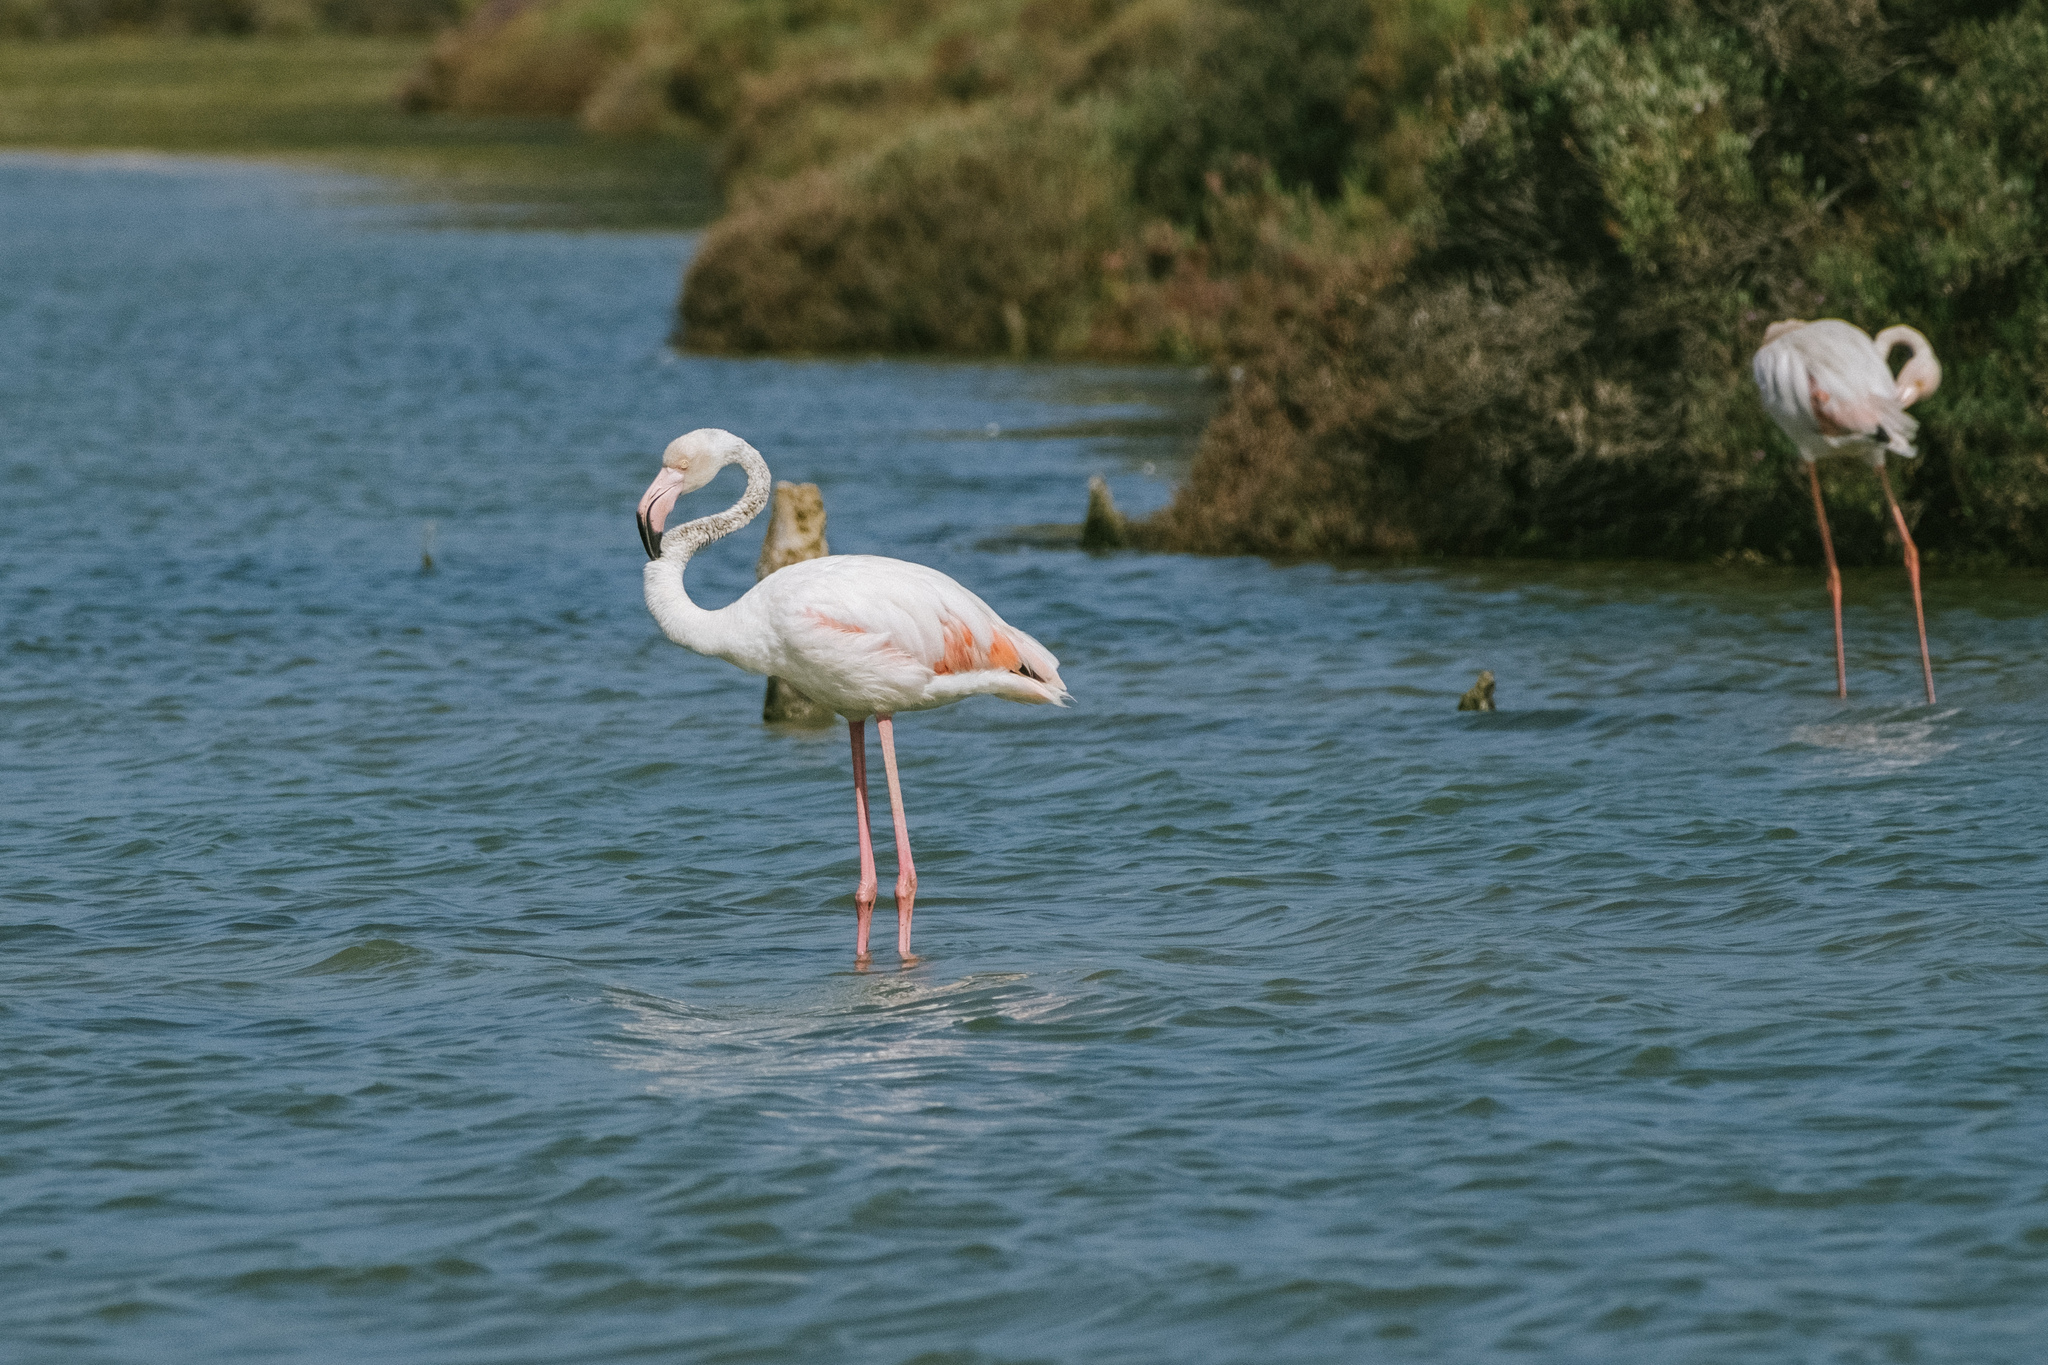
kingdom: Animalia
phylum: Chordata
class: Aves
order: Phoenicopteriformes
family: Phoenicopteridae
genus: Phoenicopterus
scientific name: Phoenicopterus roseus
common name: Greater flamingo
